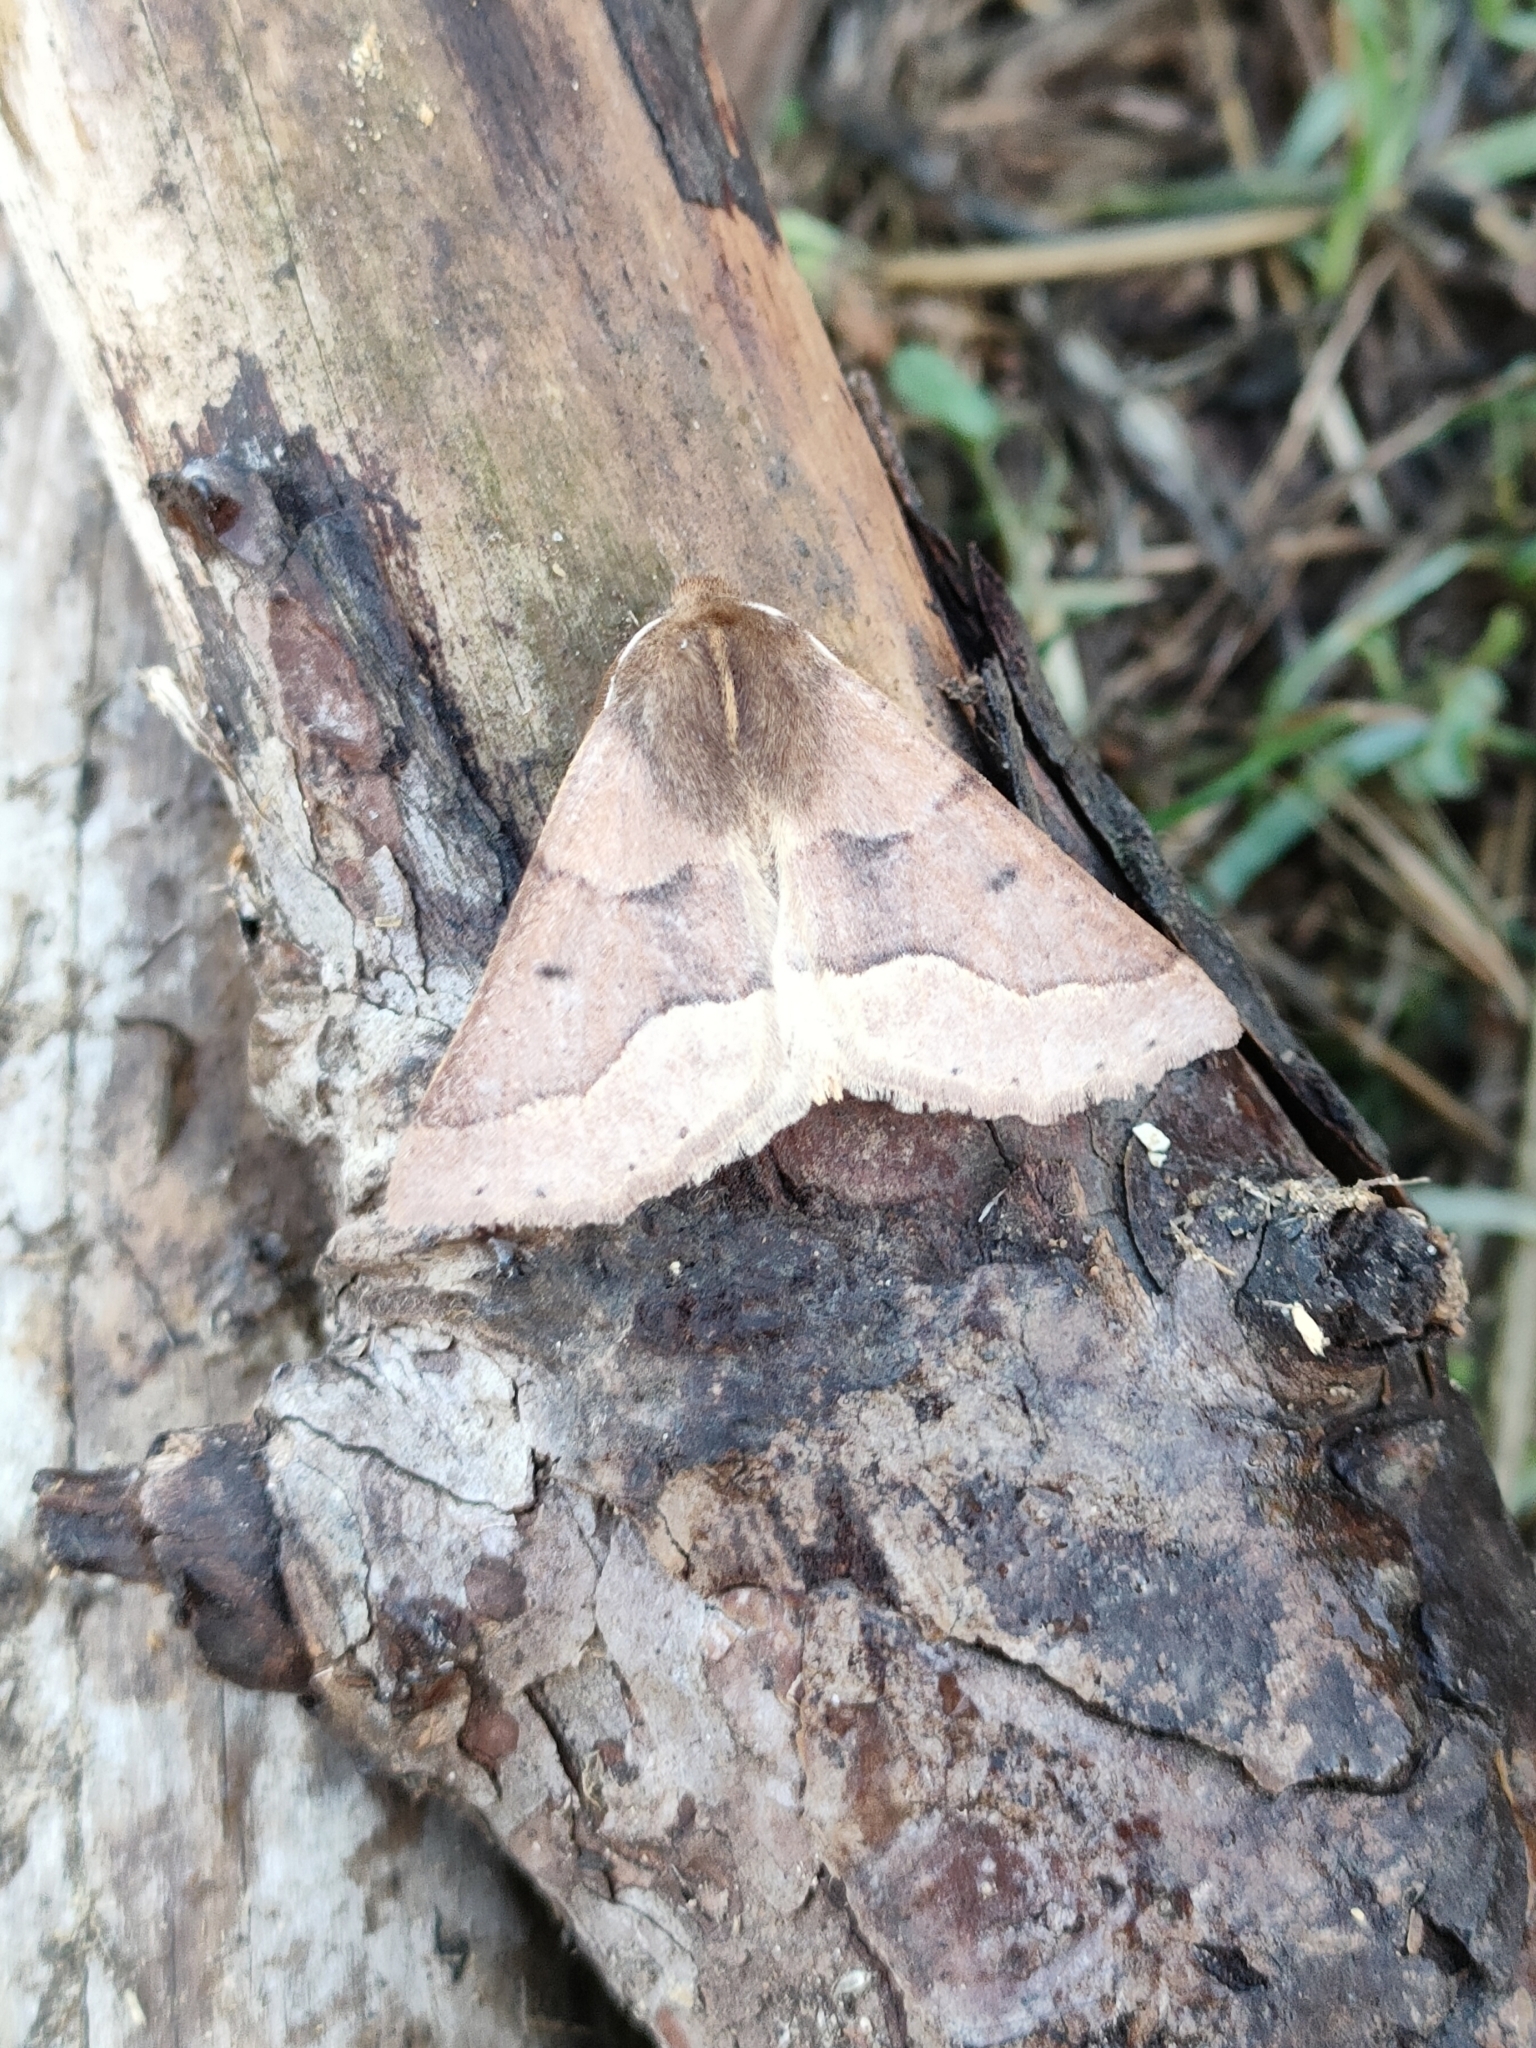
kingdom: Animalia
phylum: Arthropoda
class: Insecta
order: Lepidoptera
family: Geometridae
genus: Crocallis
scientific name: Crocallis tusciaria
